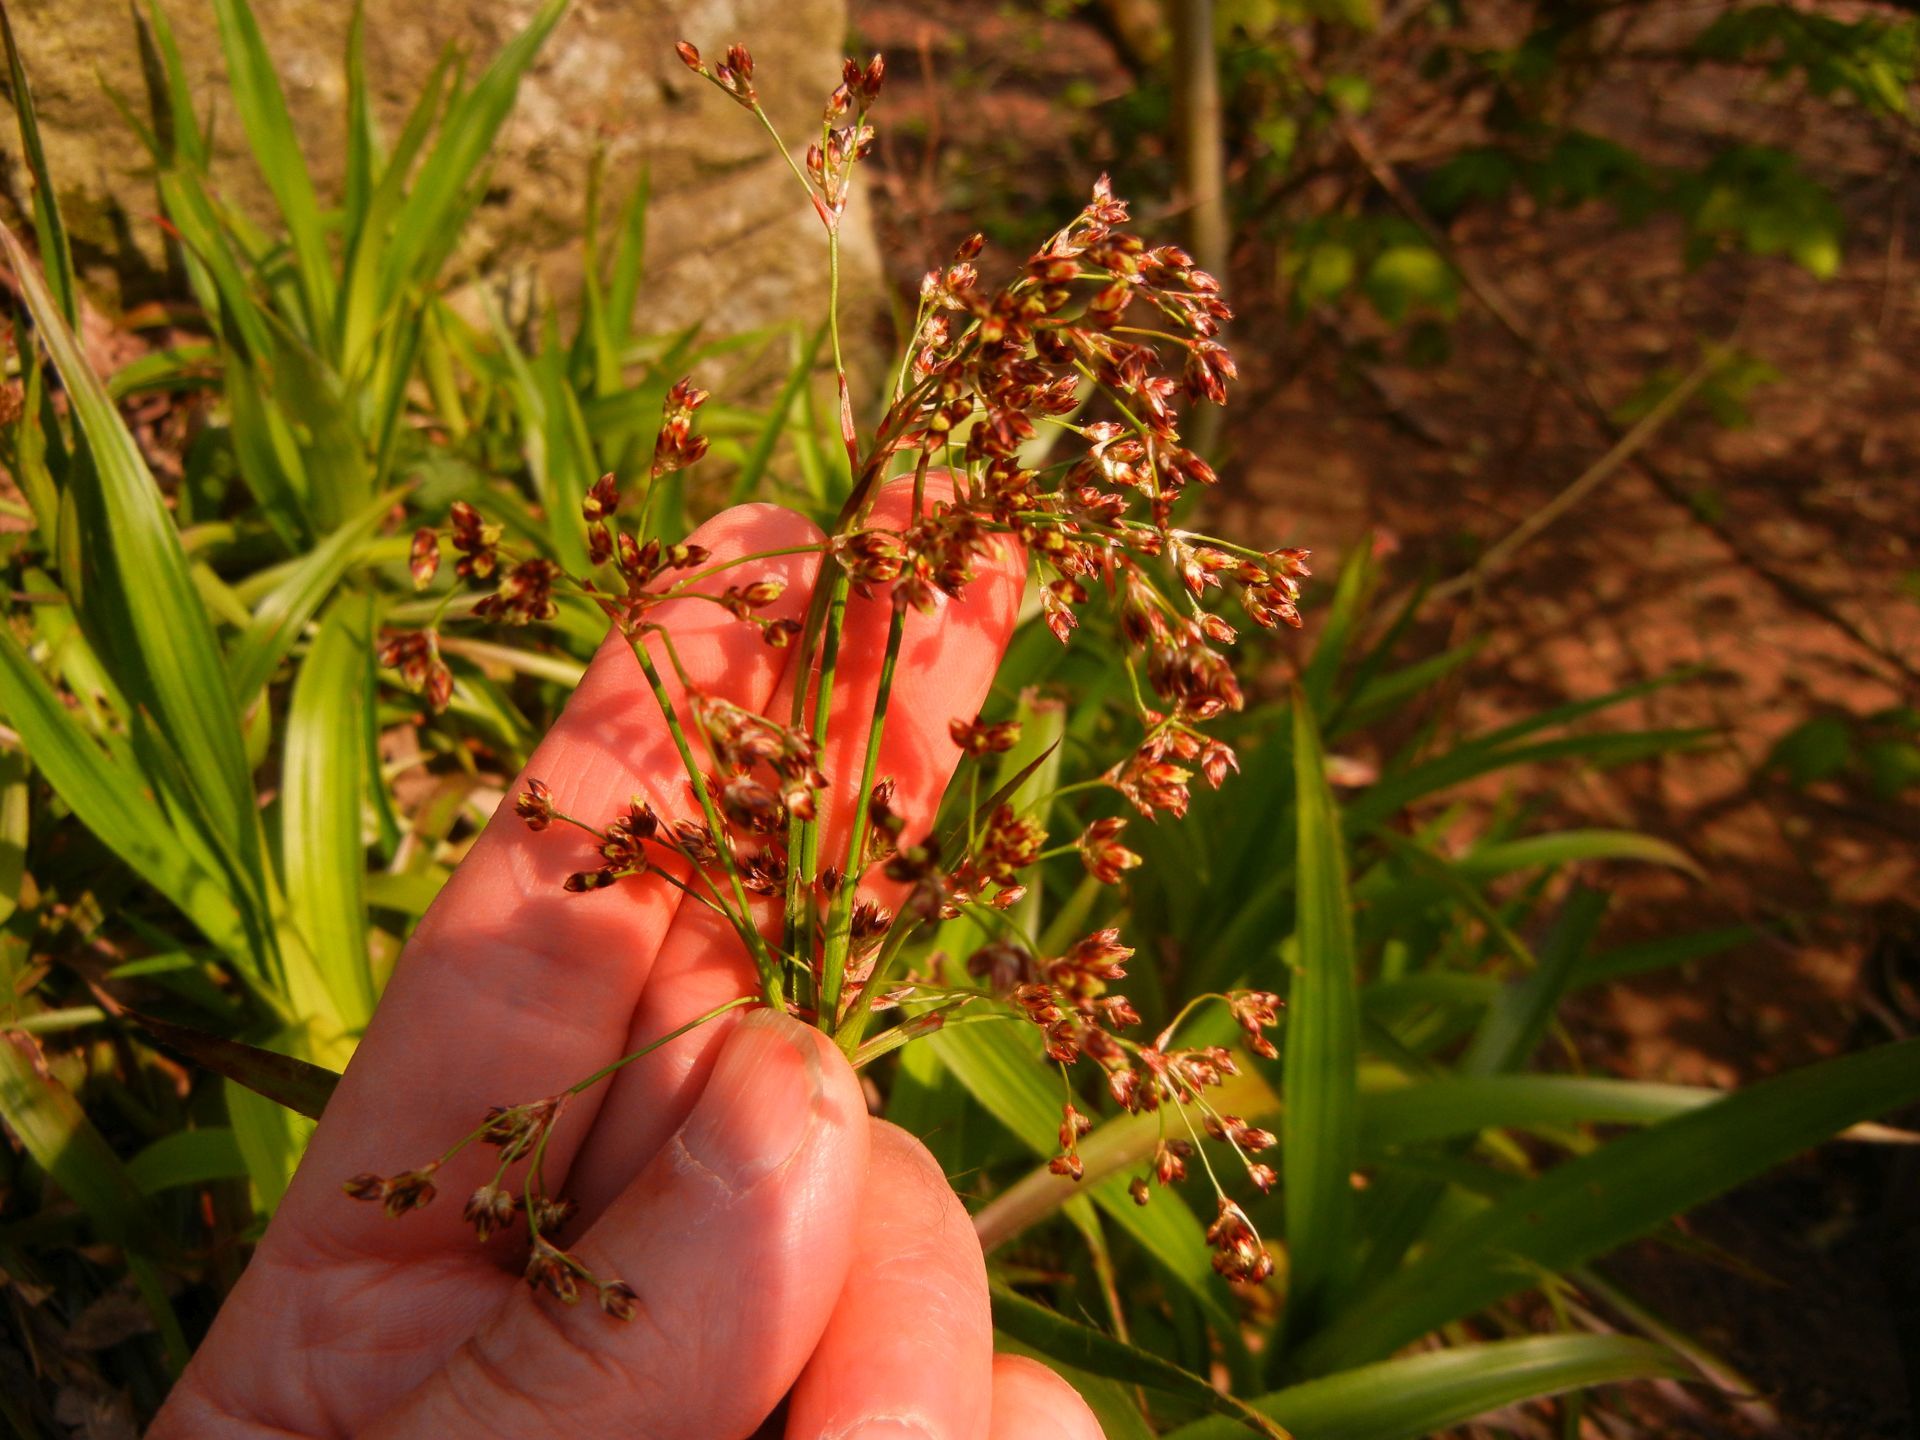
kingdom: Plantae
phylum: Tracheophyta
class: Liliopsida
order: Poales
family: Juncaceae
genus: Luzula
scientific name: Luzula sylvatica
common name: Great wood-rush
